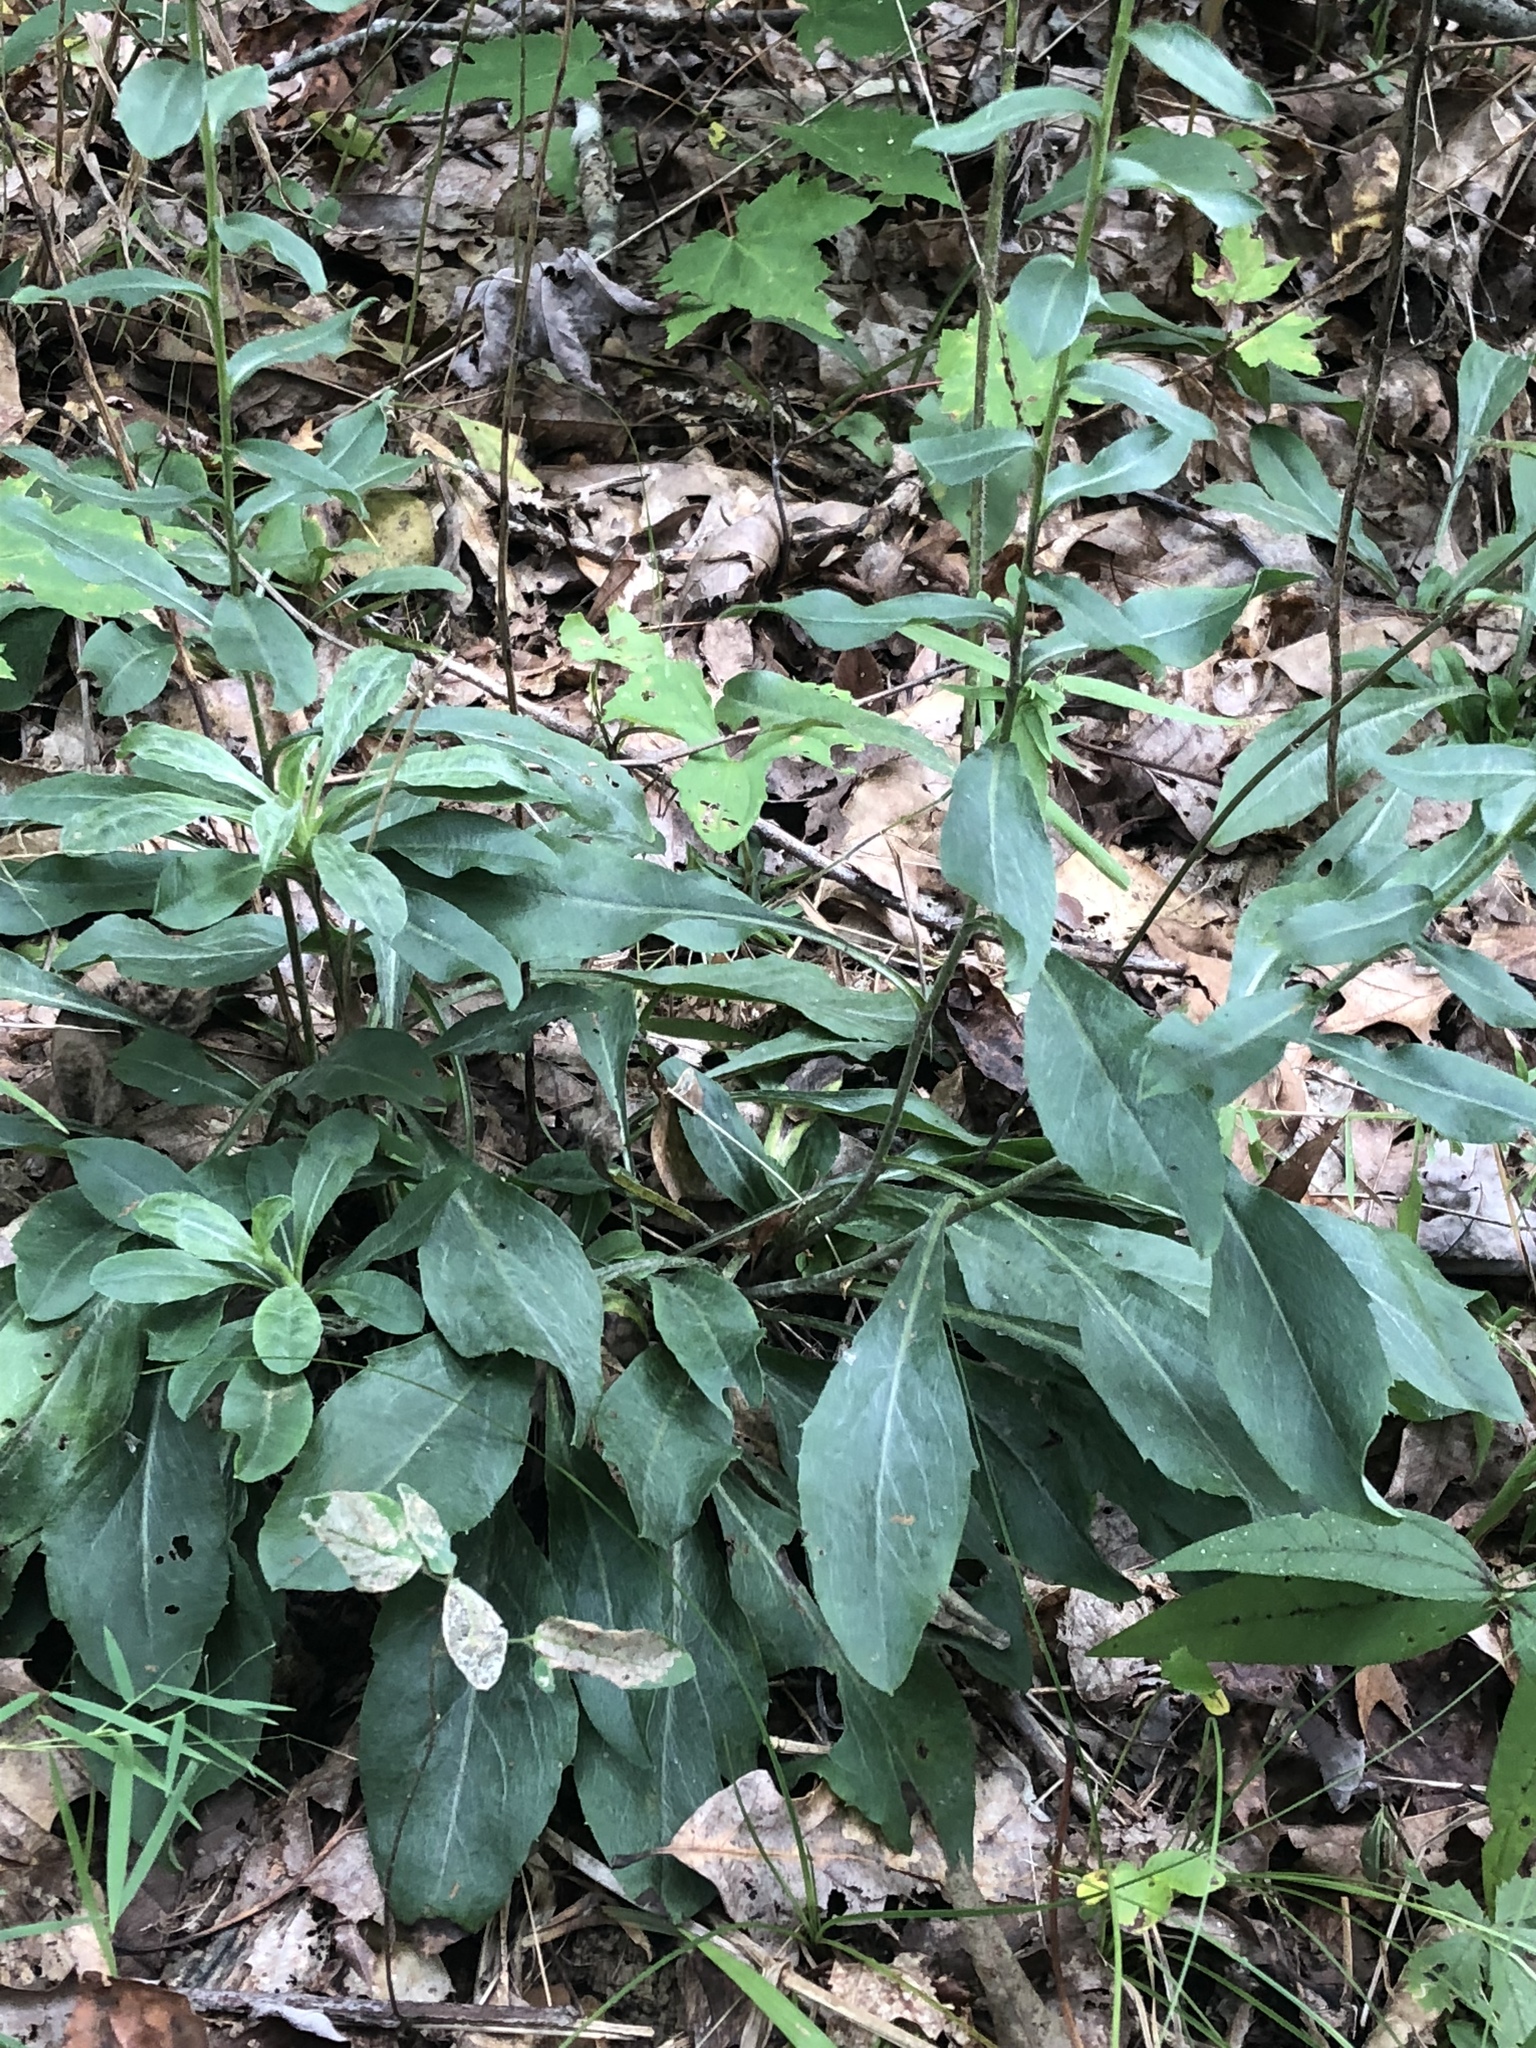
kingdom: Plantae
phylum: Tracheophyta
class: Magnoliopsida
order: Asterales
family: Asteraceae
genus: Chrysopsis
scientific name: Chrysopsis mariana
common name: Maryland golden-aster
